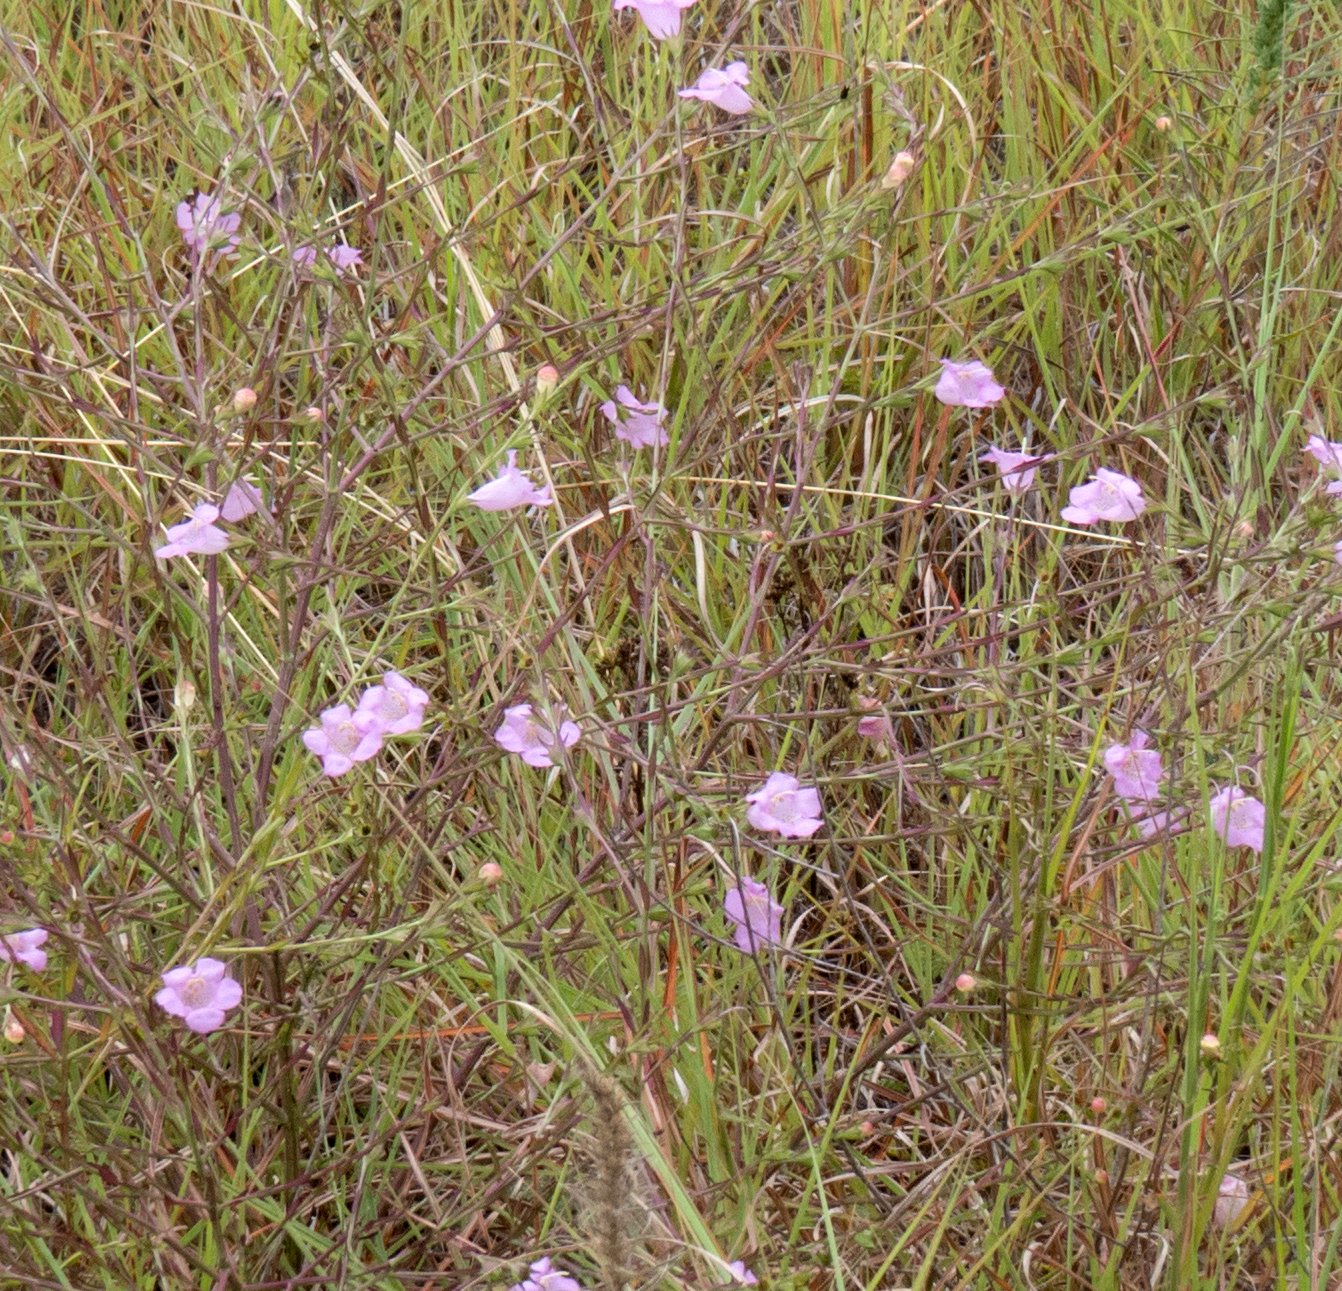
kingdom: Plantae
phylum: Tracheophyta
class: Magnoliopsida
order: Lamiales
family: Orobanchaceae
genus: Agalinis
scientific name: Agalinis heterophylla
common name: Prairie agalinis
